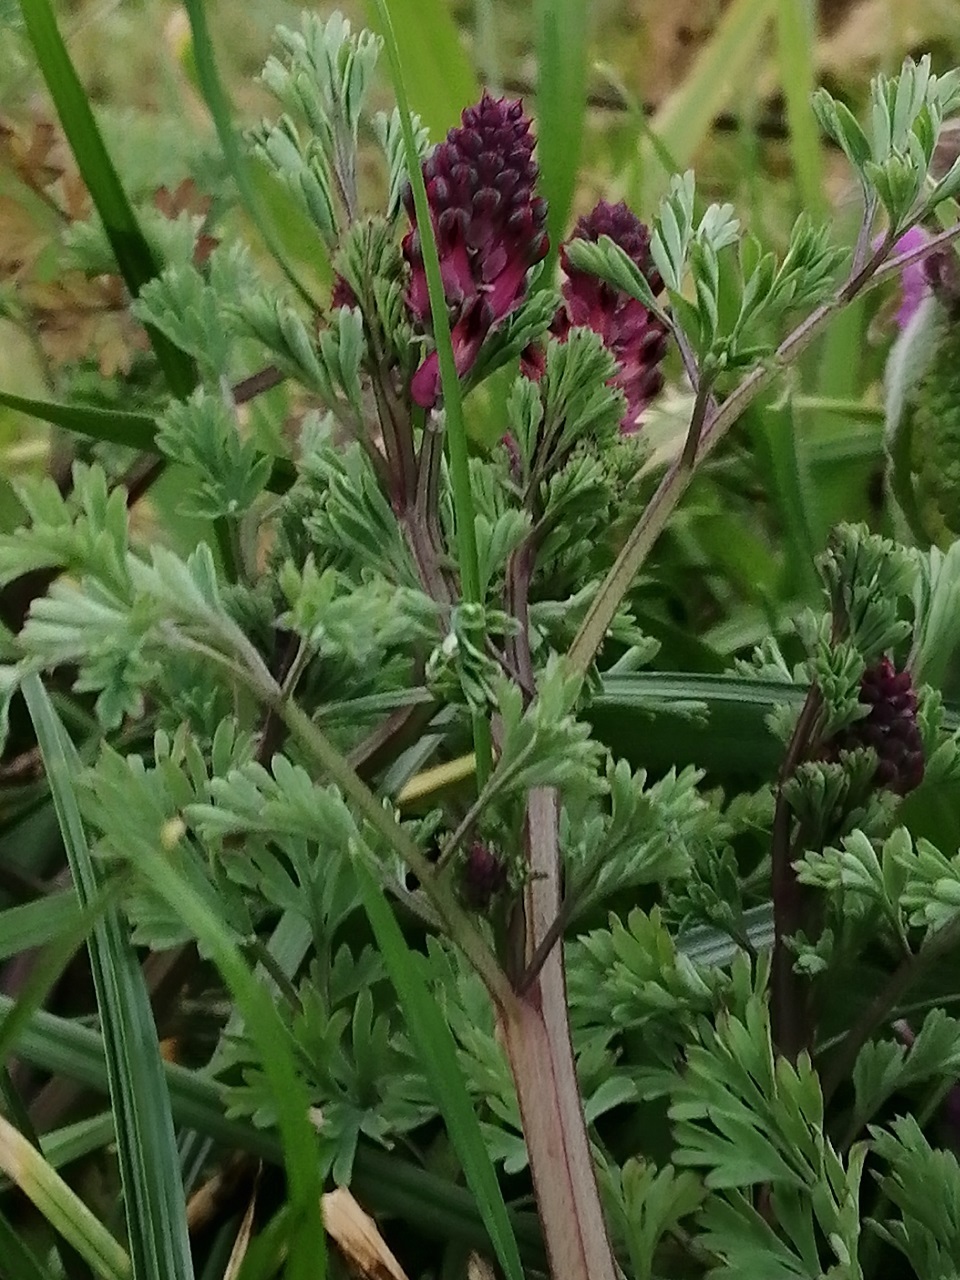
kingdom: Plantae
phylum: Tracheophyta
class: Magnoliopsida
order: Ranunculales
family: Papaveraceae
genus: Fumaria
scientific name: Fumaria officinalis
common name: Common fumitory
